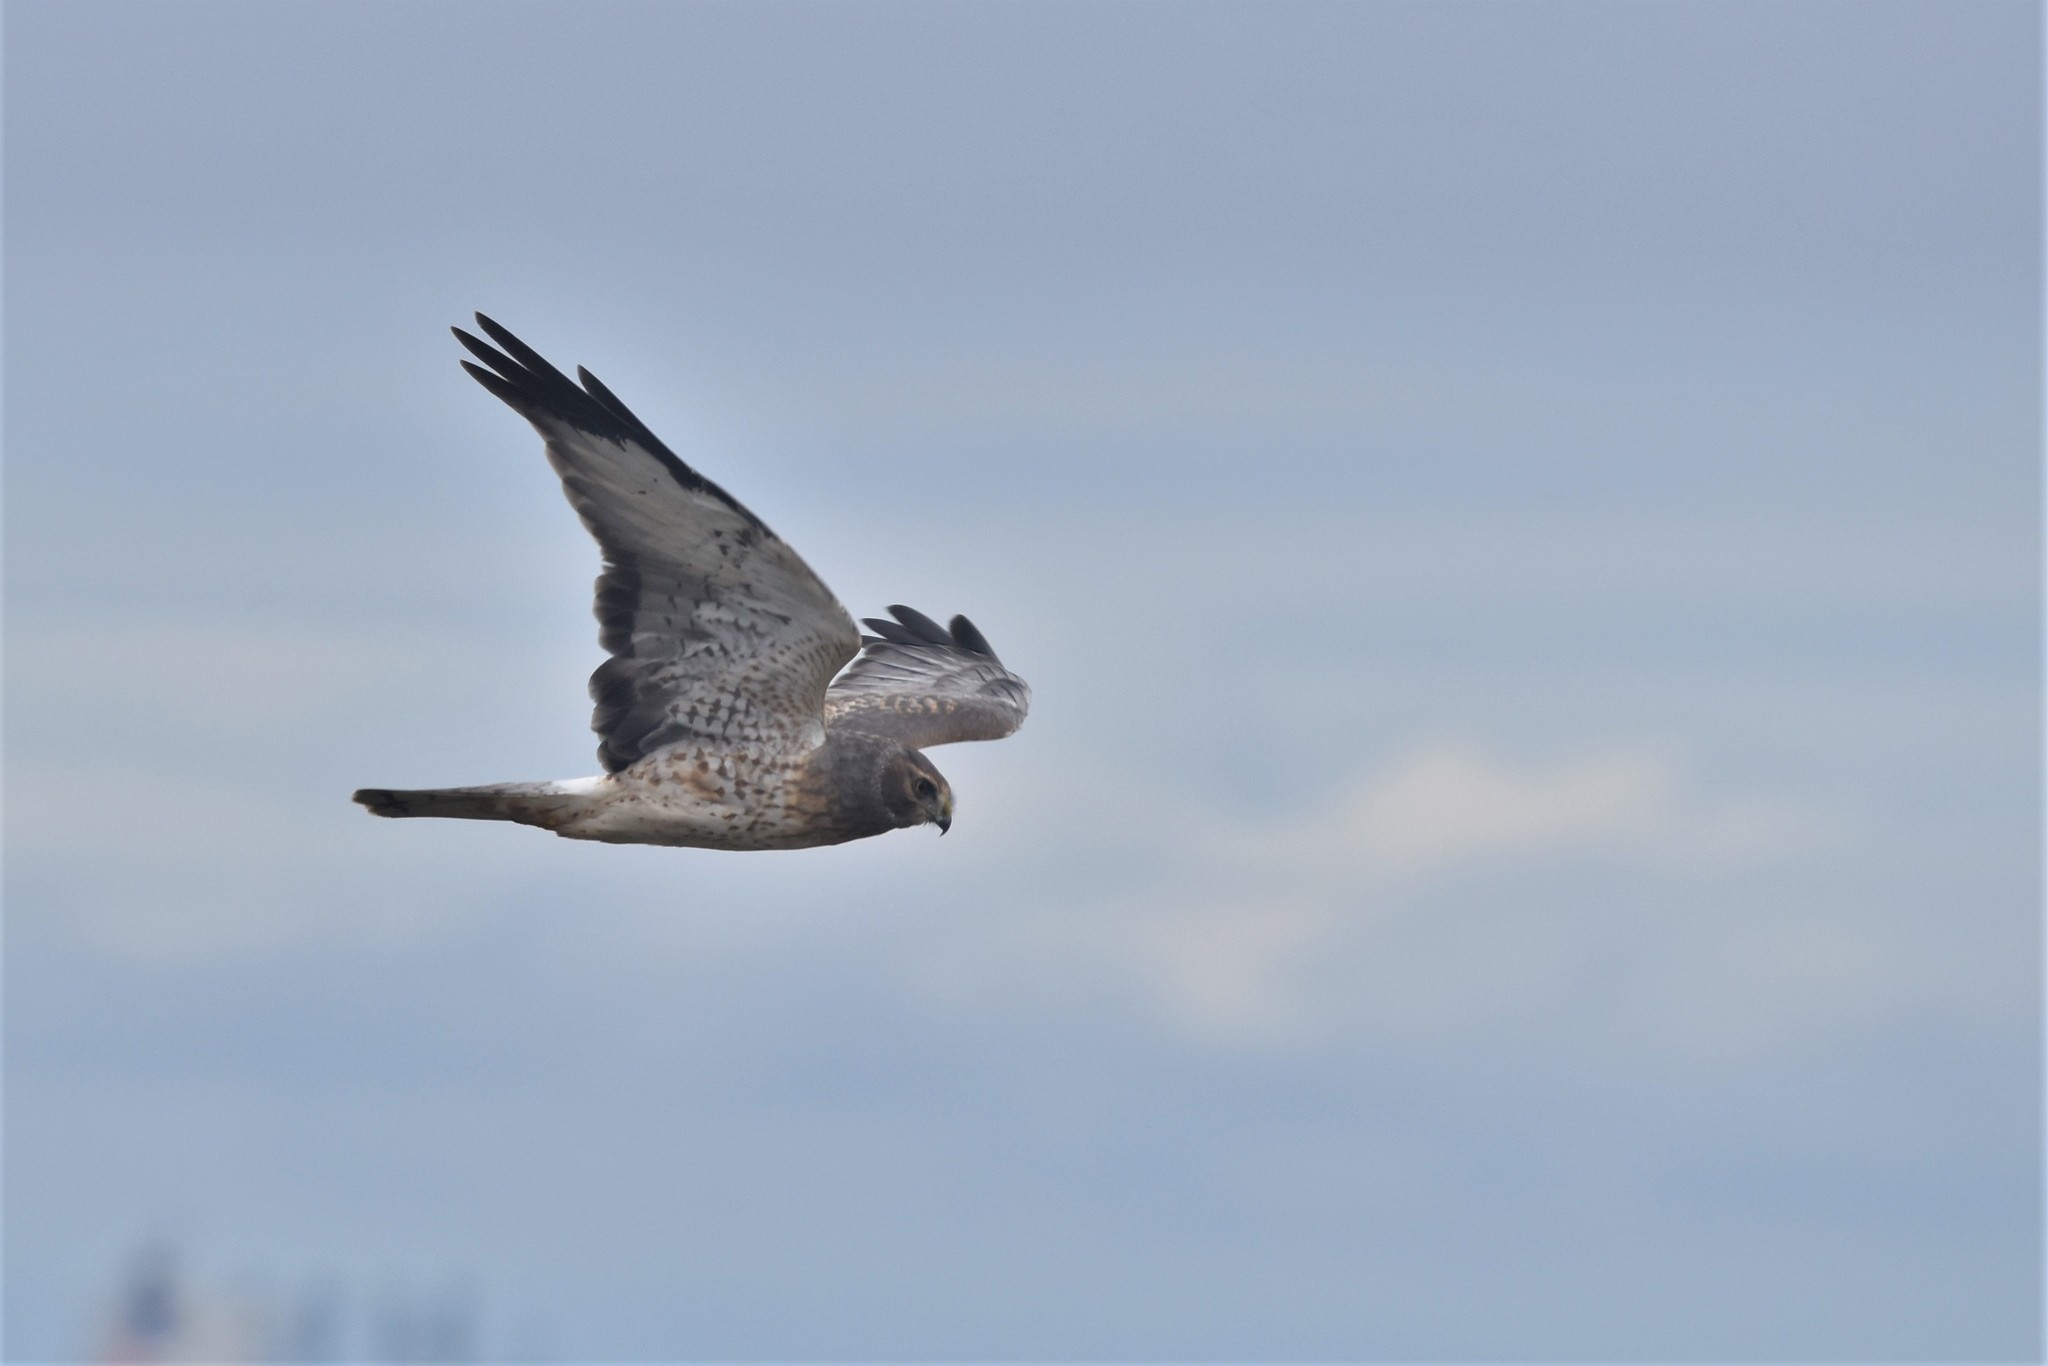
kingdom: Animalia
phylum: Chordata
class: Aves
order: Accipitriformes
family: Accipitridae
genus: Circus
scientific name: Circus cyaneus
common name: Hen harrier
